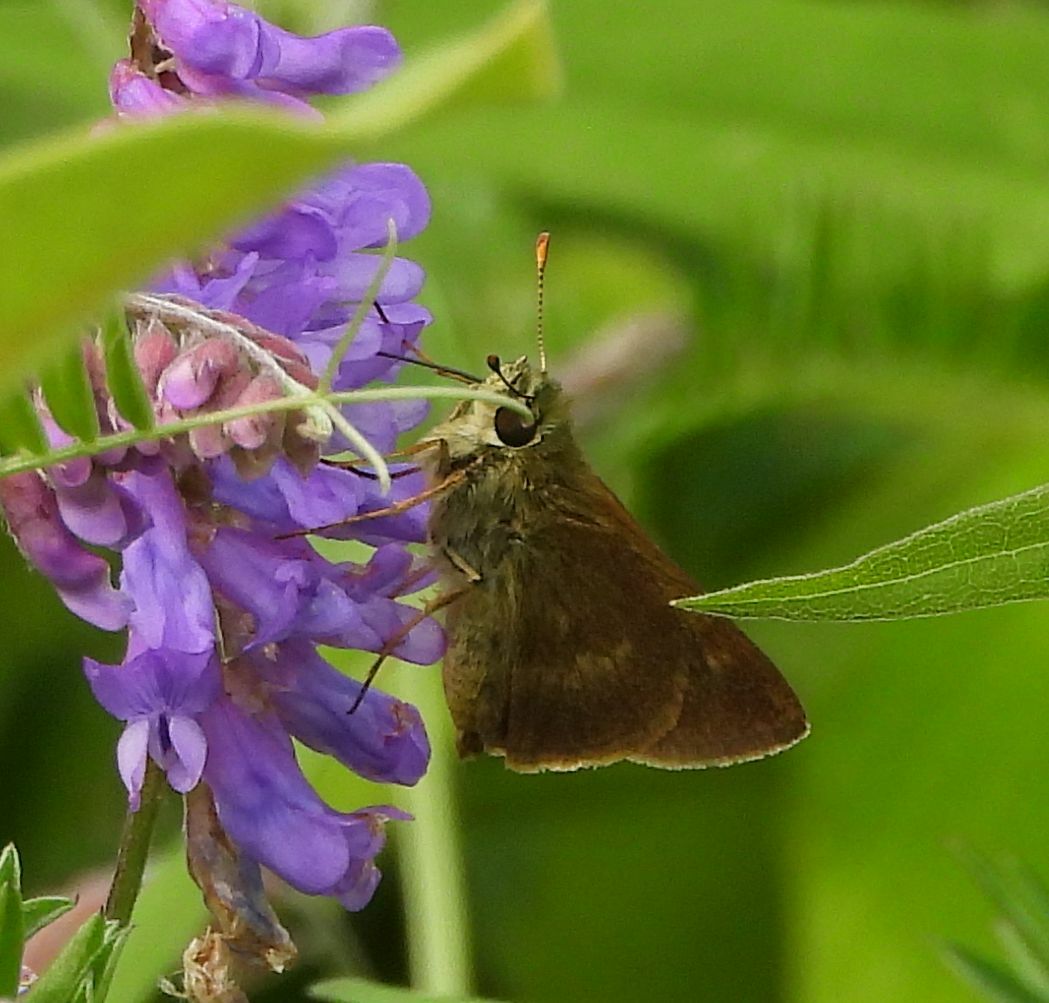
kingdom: Animalia
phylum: Arthropoda
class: Insecta
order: Lepidoptera
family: Hesperiidae
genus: Polites
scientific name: Polites egeremet
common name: Northern broken-dash
